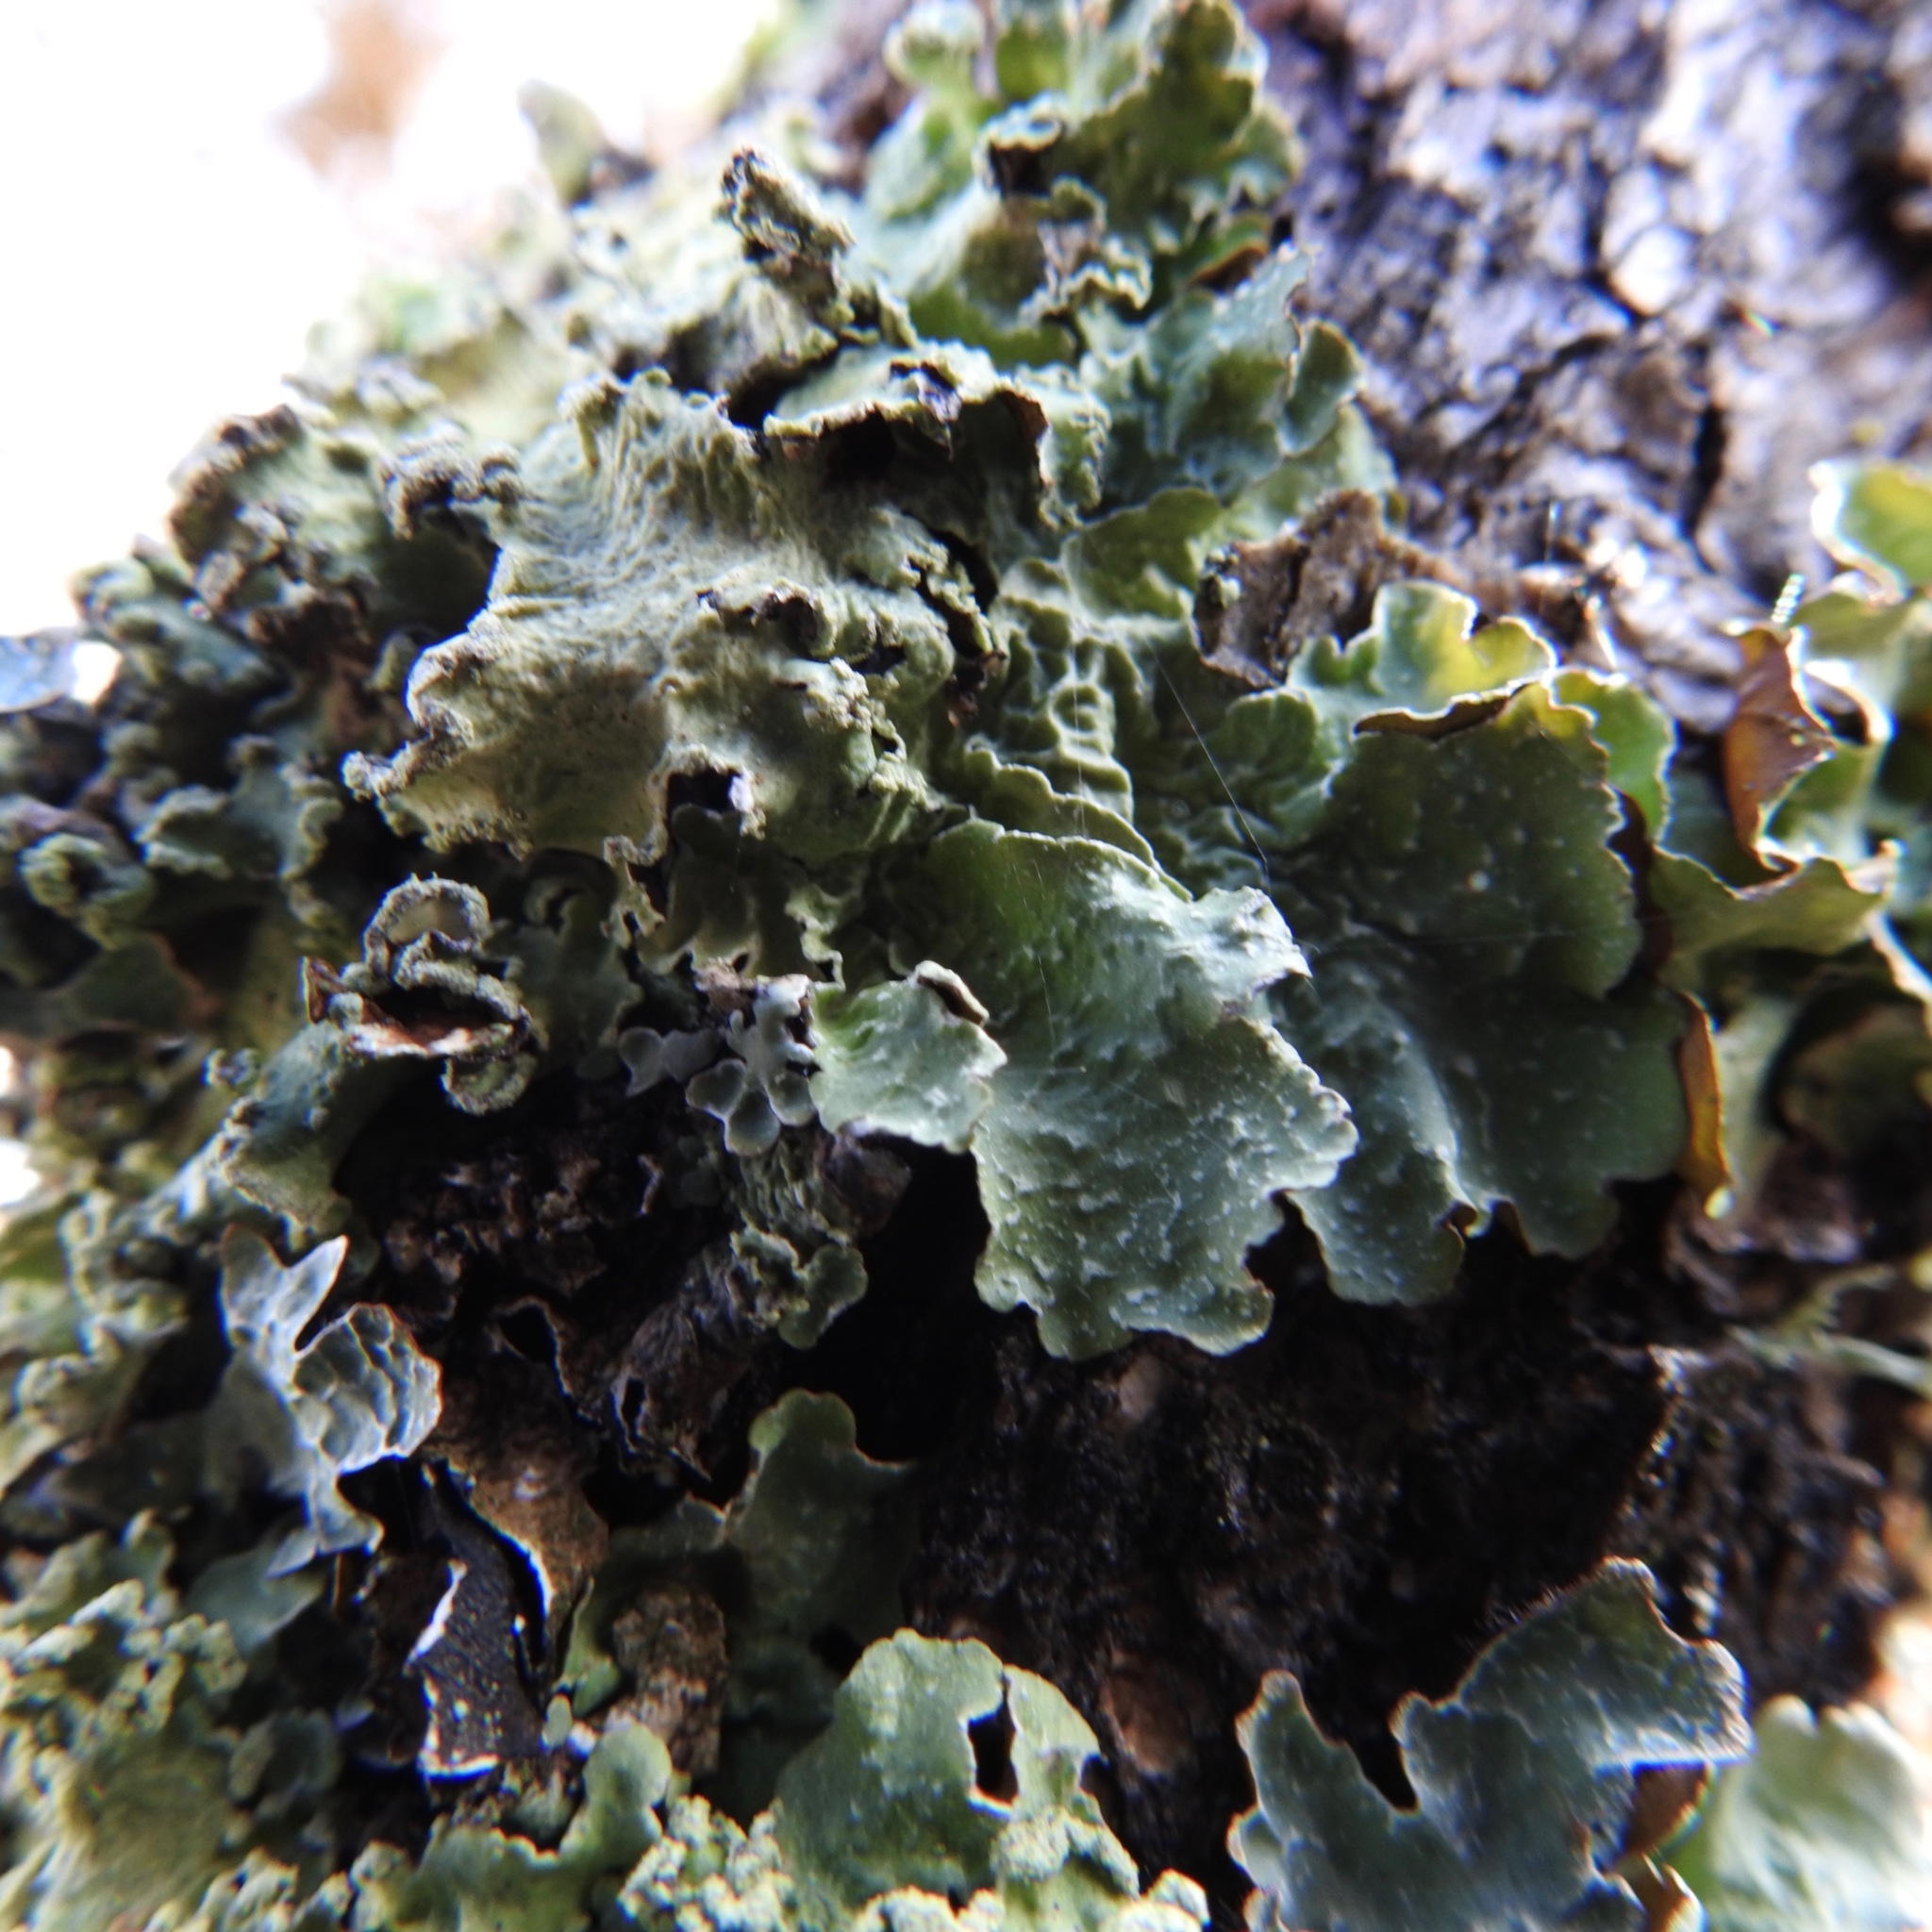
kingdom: Fungi
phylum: Ascomycota
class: Lecanoromycetes
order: Lecanorales
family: Parmeliaceae
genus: Flavopunctelia
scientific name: Flavopunctelia flaventior
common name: Speckled greenshield
